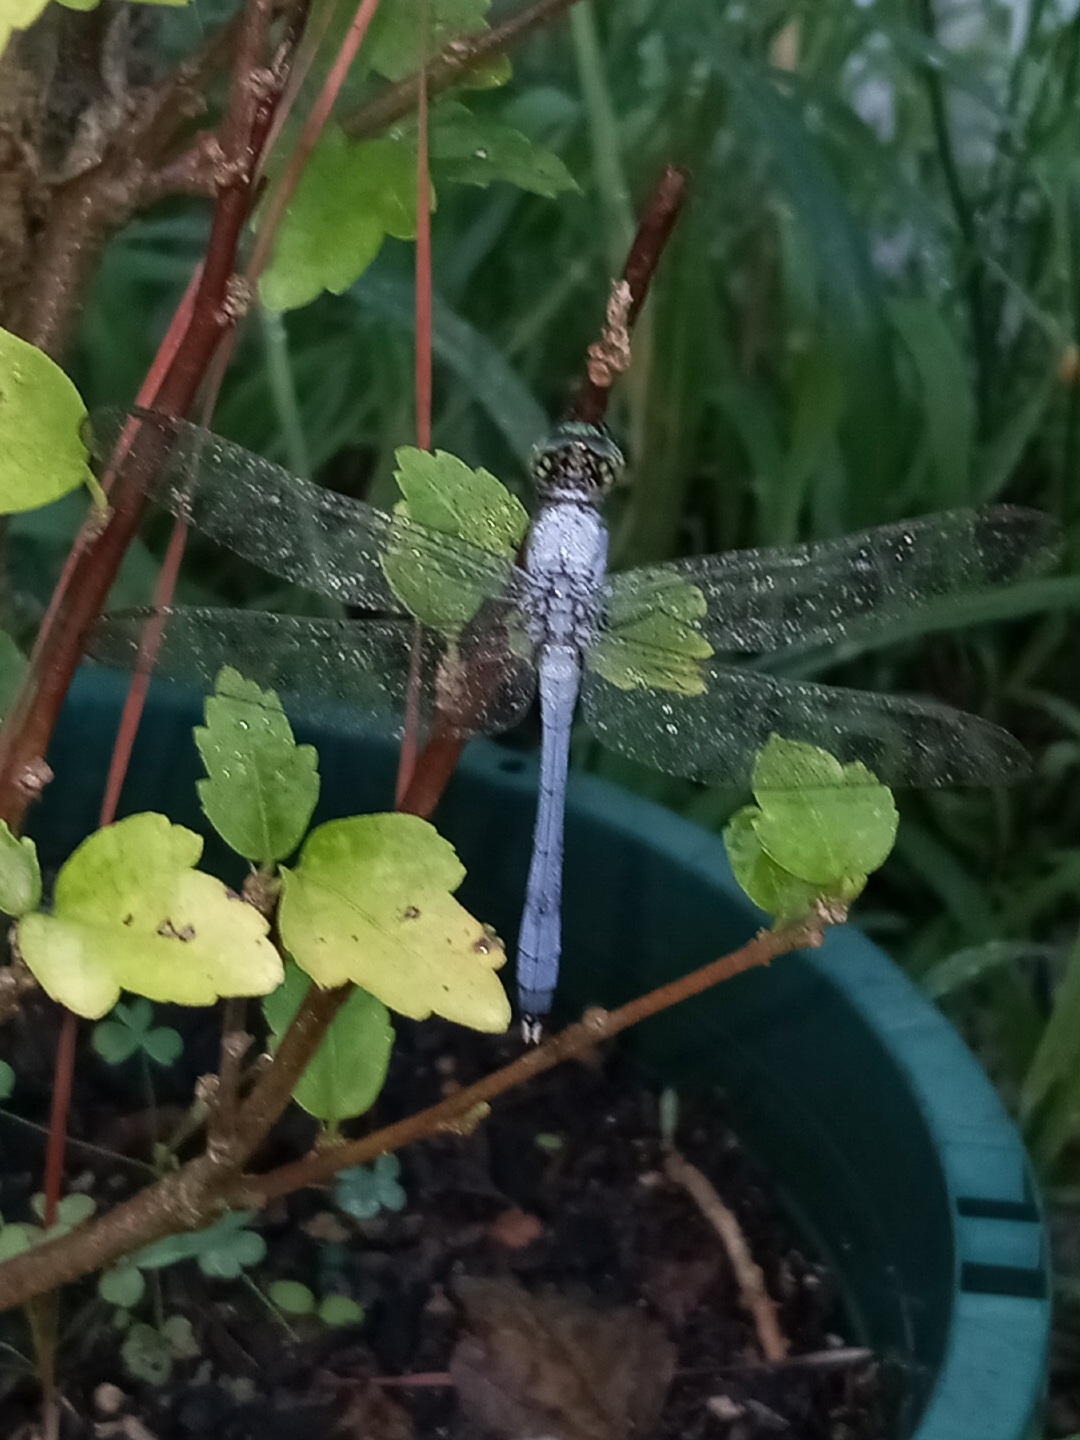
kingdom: Animalia
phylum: Arthropoda
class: Insecta
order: Odonata
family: Libellulidae
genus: Erythemis
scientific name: Erythemis simplicicollis
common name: Eastern pondhawk
